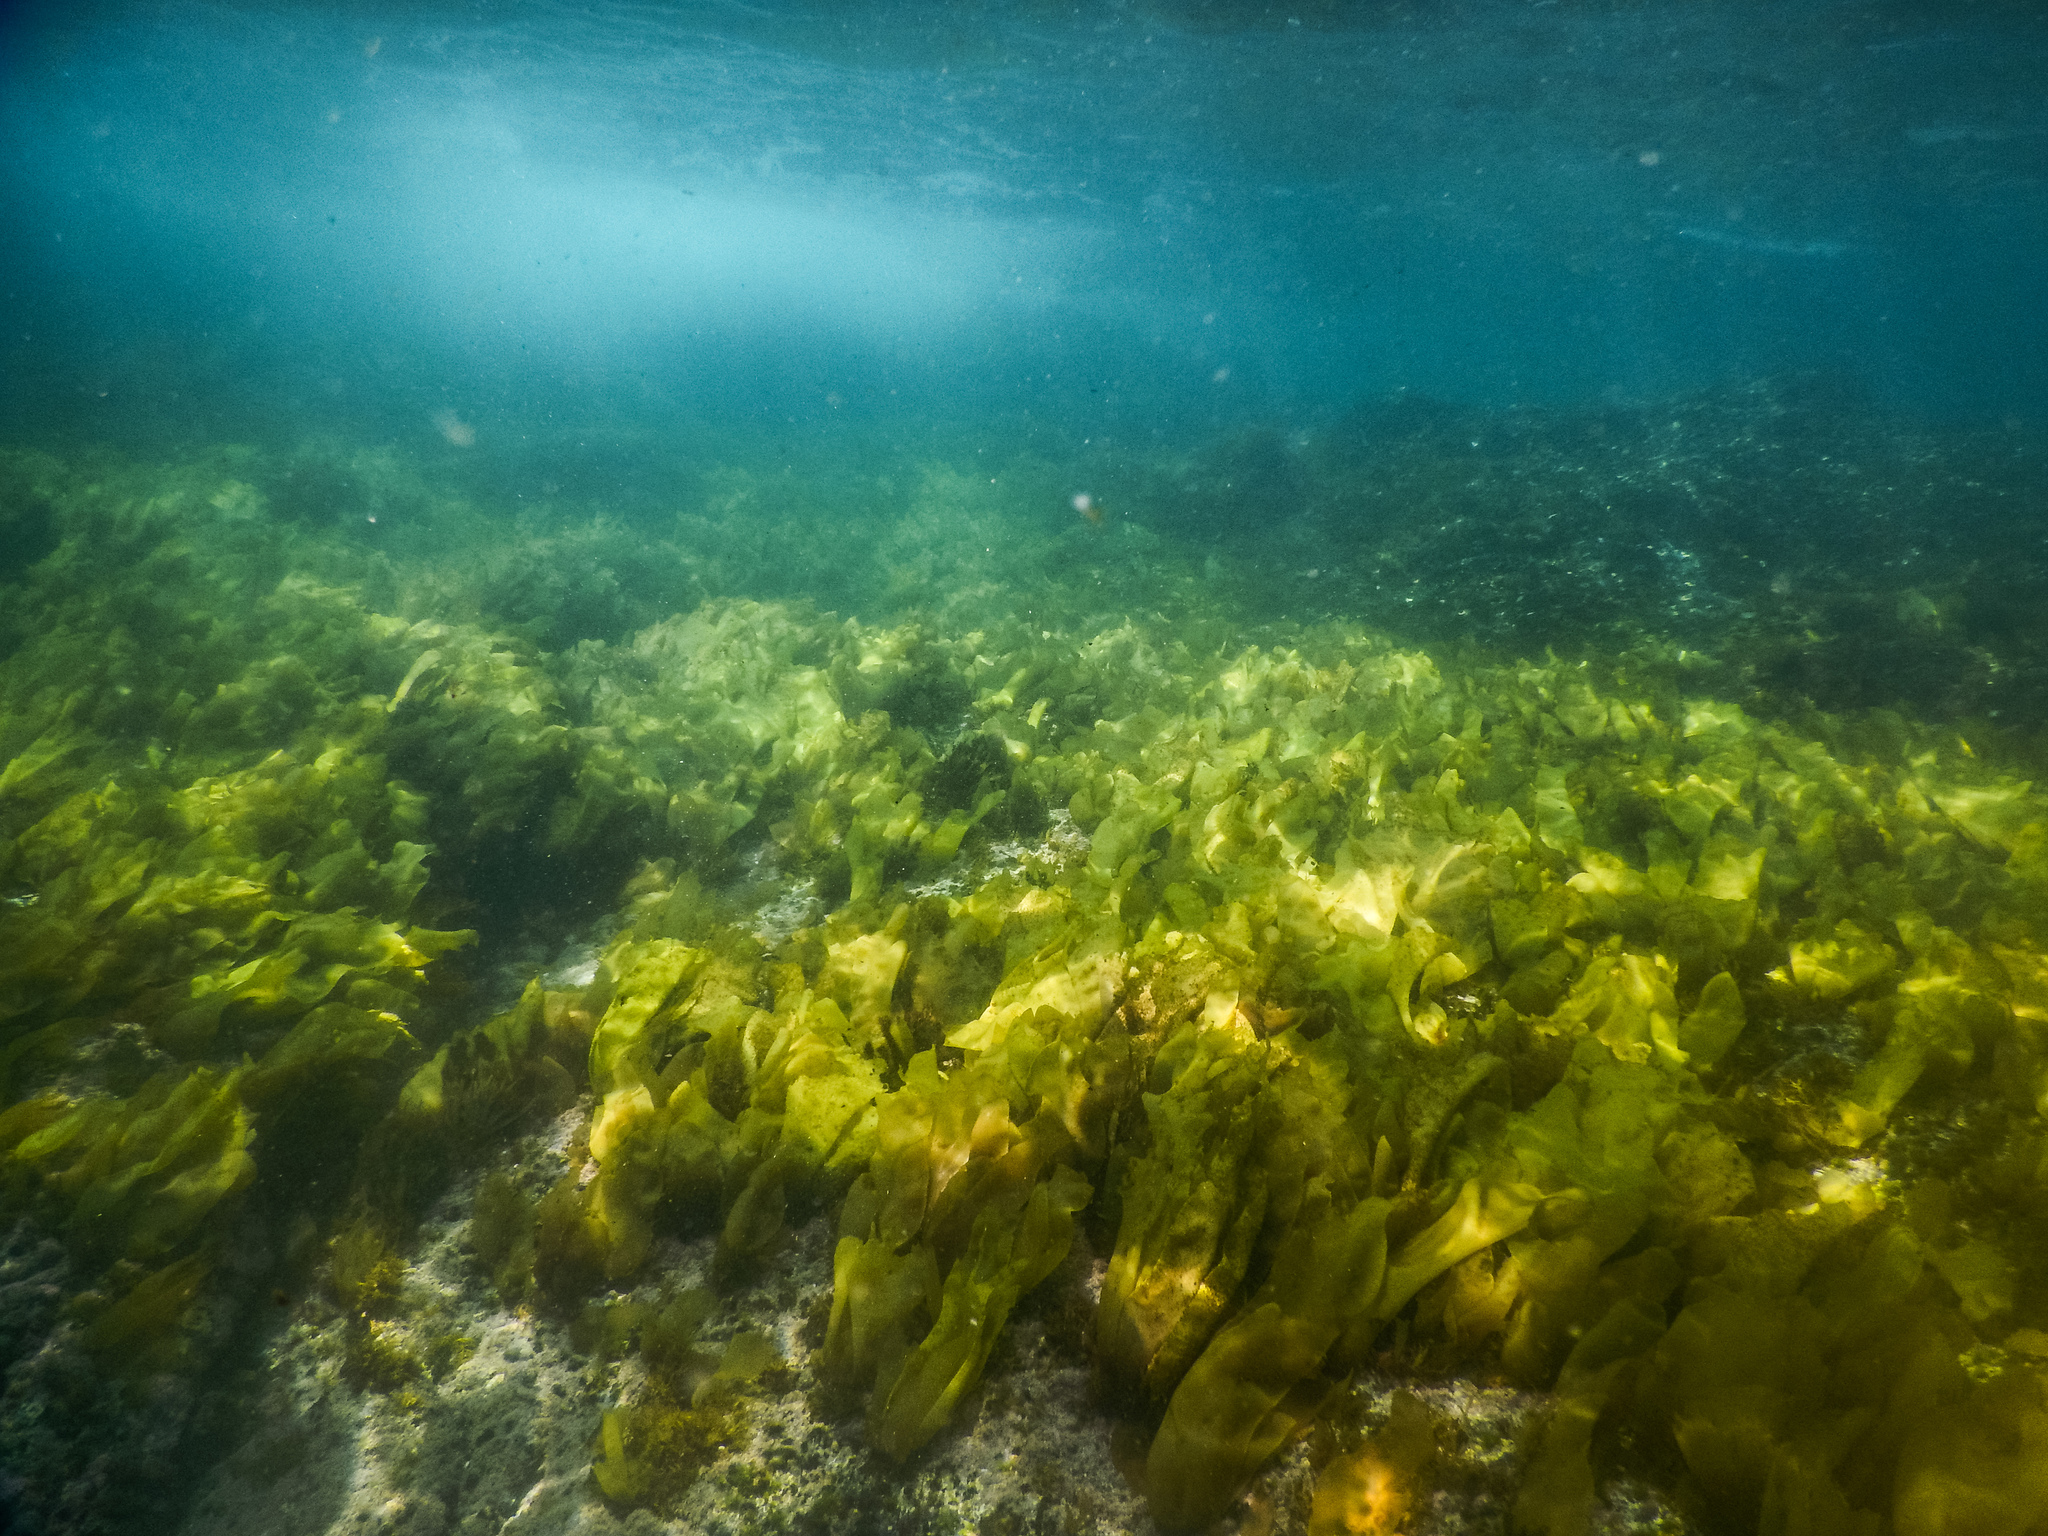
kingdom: Plantae
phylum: Rhodophyta
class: Florideophyceae
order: Gigartinales
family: Gigartinaceae
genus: Sarcothalia
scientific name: Sarcothalia
